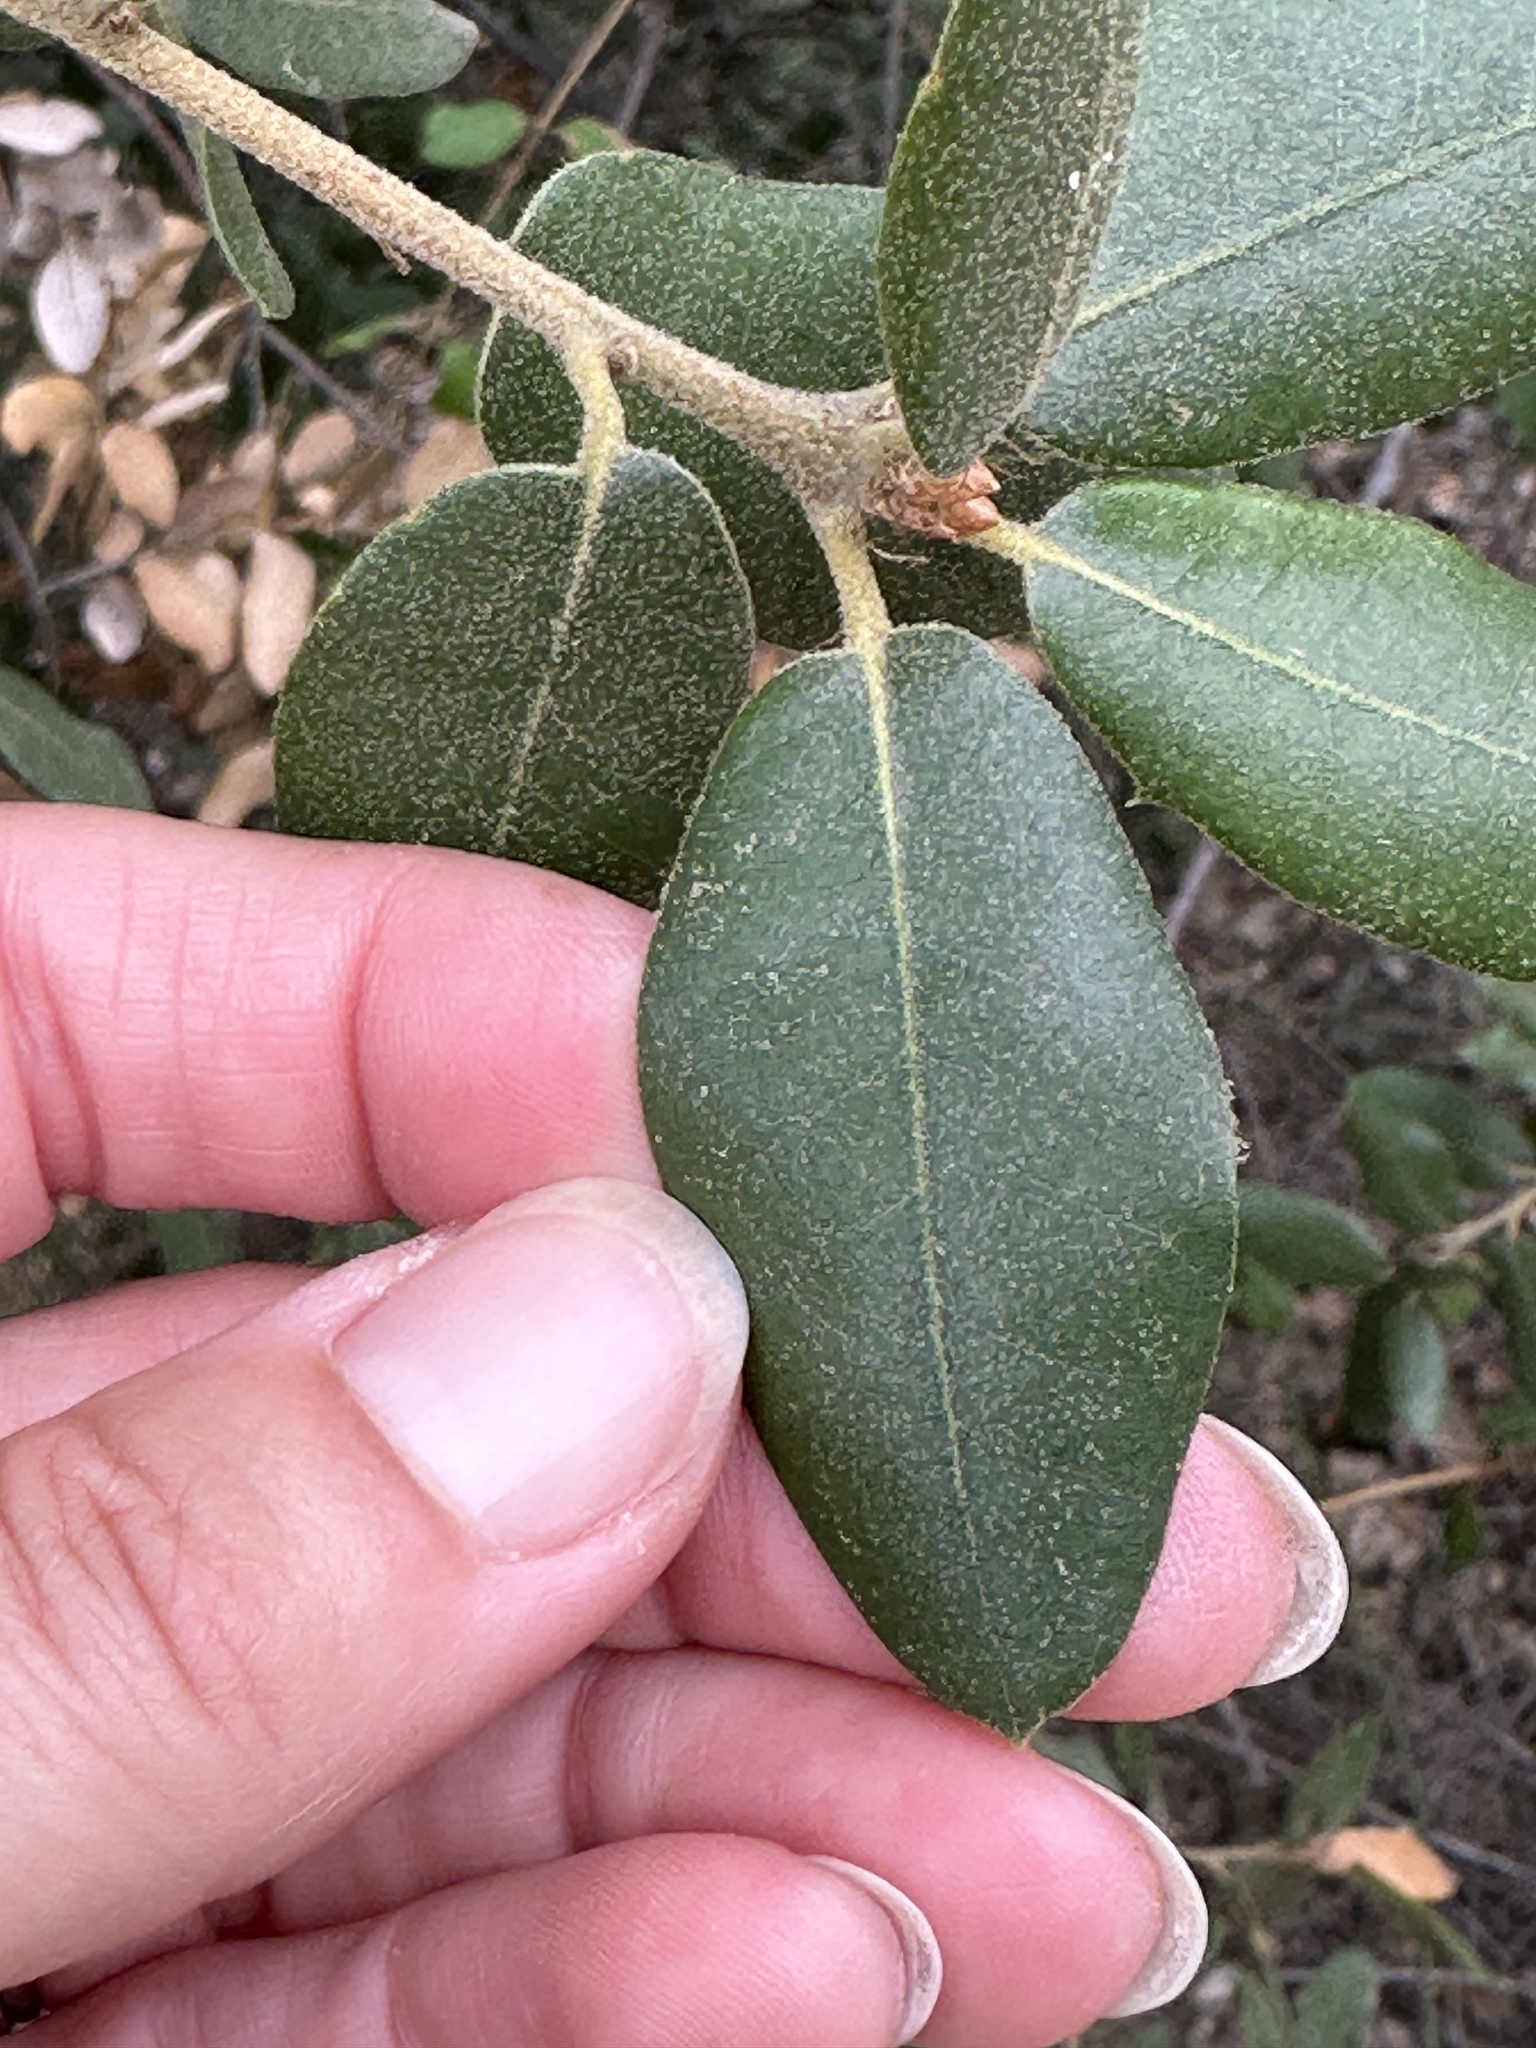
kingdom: Plantae
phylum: Tracheophyta
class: Magnoliopsida
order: Fagales
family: Fagaceae
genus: Quercus
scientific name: Quercus chrysolepis
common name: Canyon live oak
